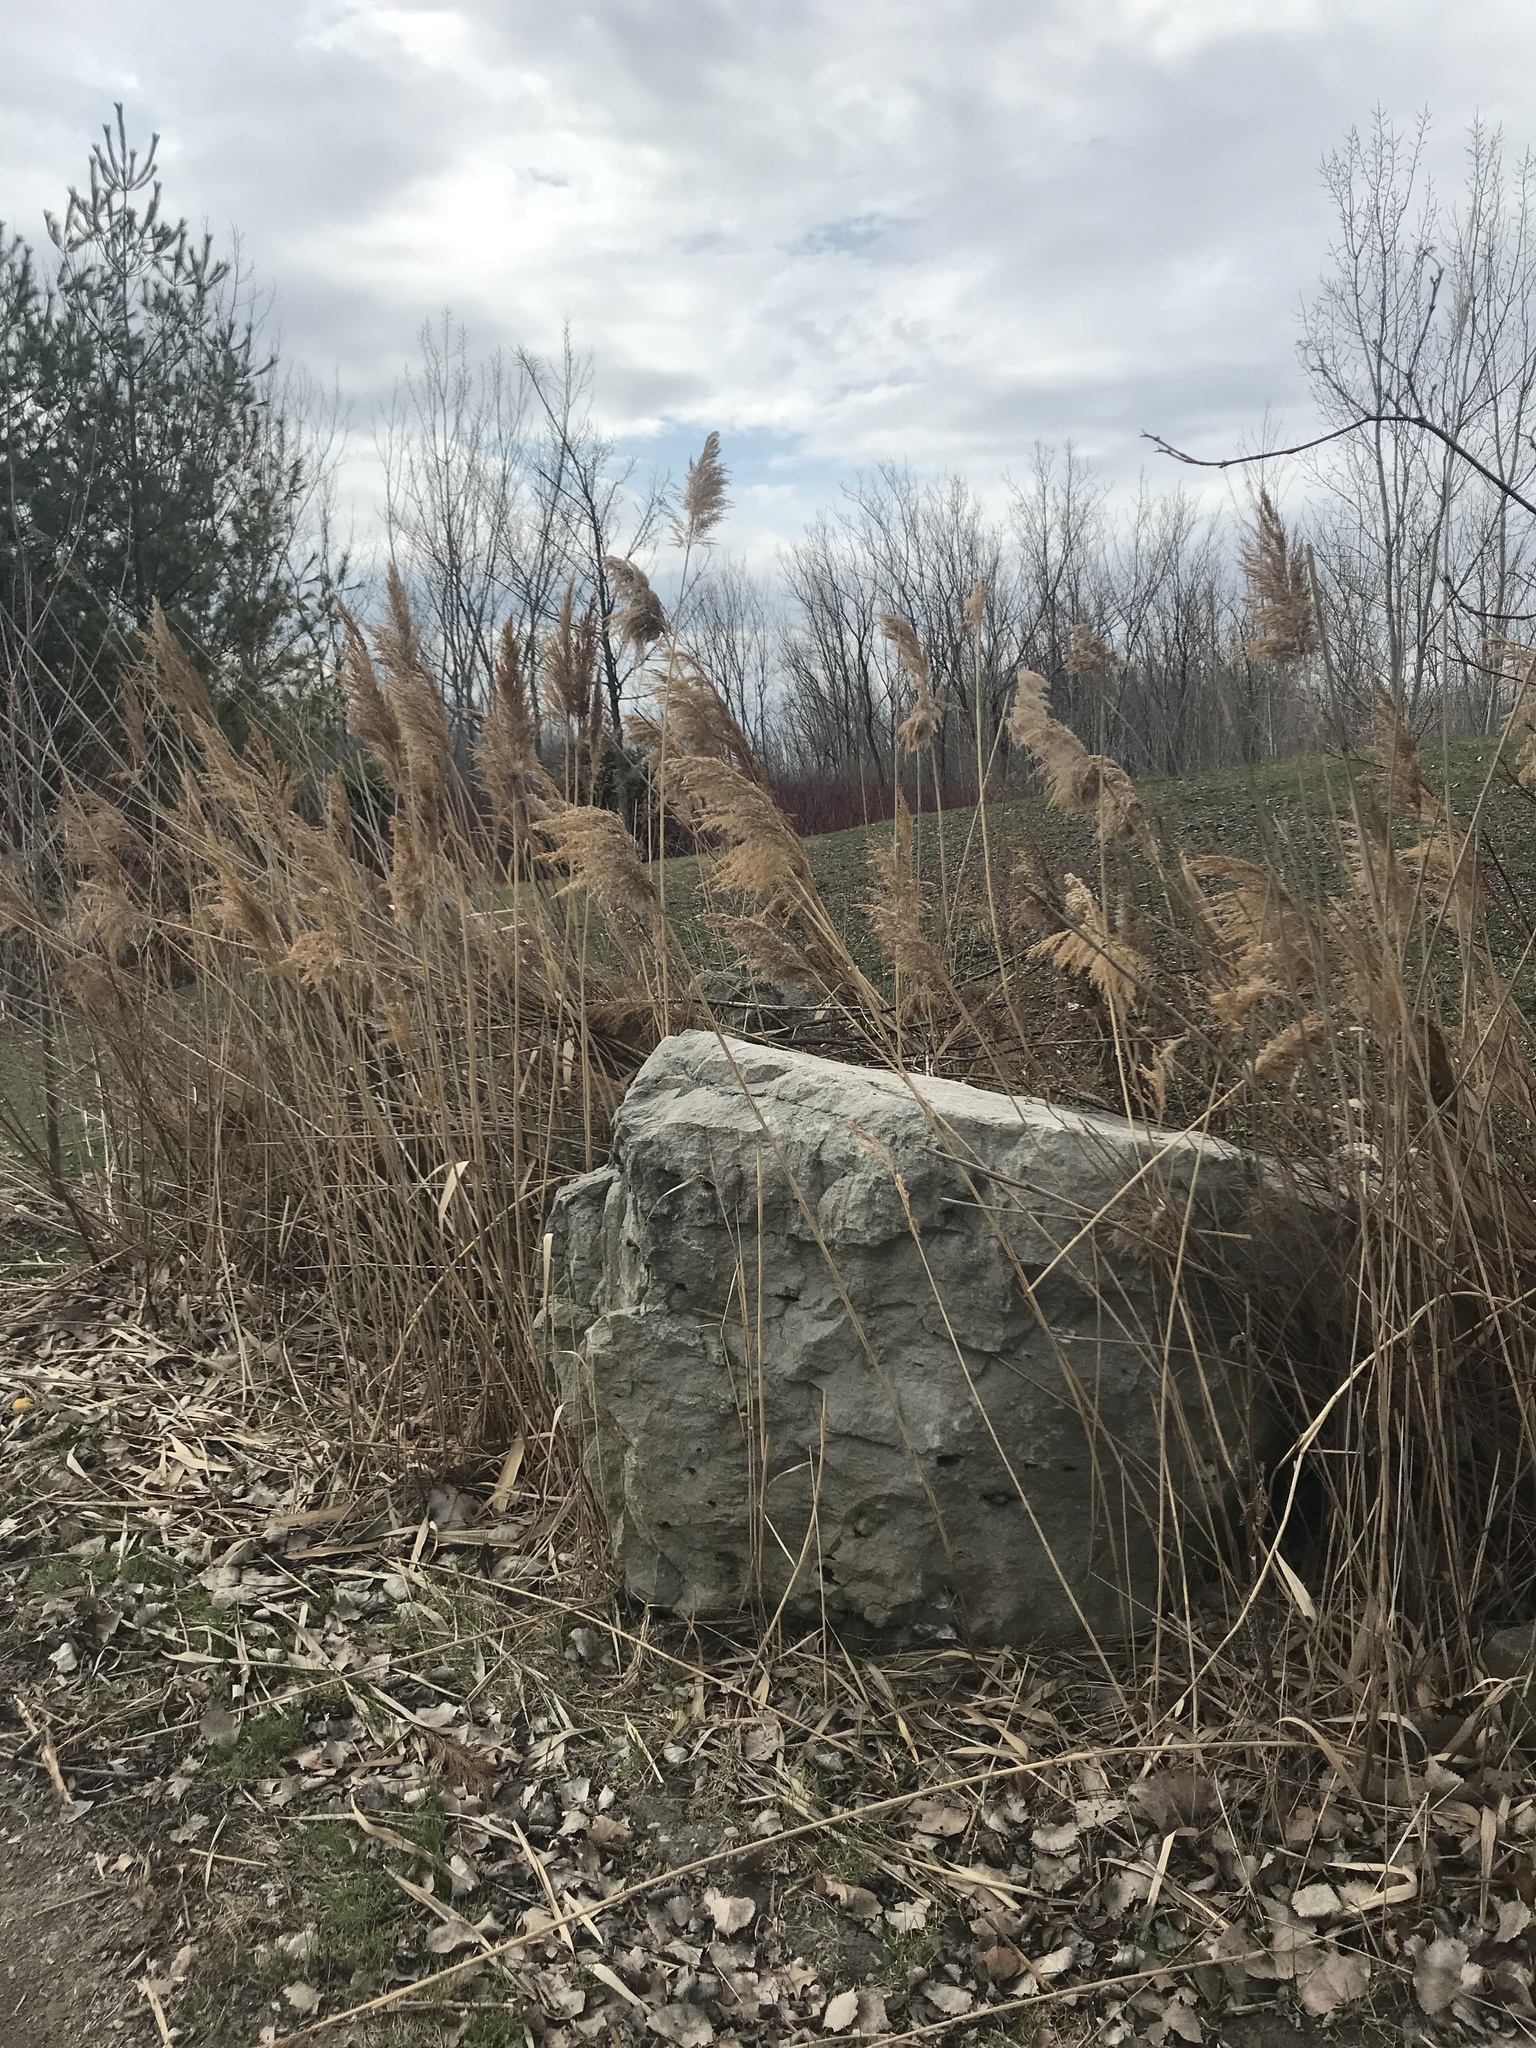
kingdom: Plantae
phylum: Tracheophyta
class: Liliopsida
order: Poales
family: Poaceae
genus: Phragmites
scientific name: Phragmites australis
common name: Common reed
